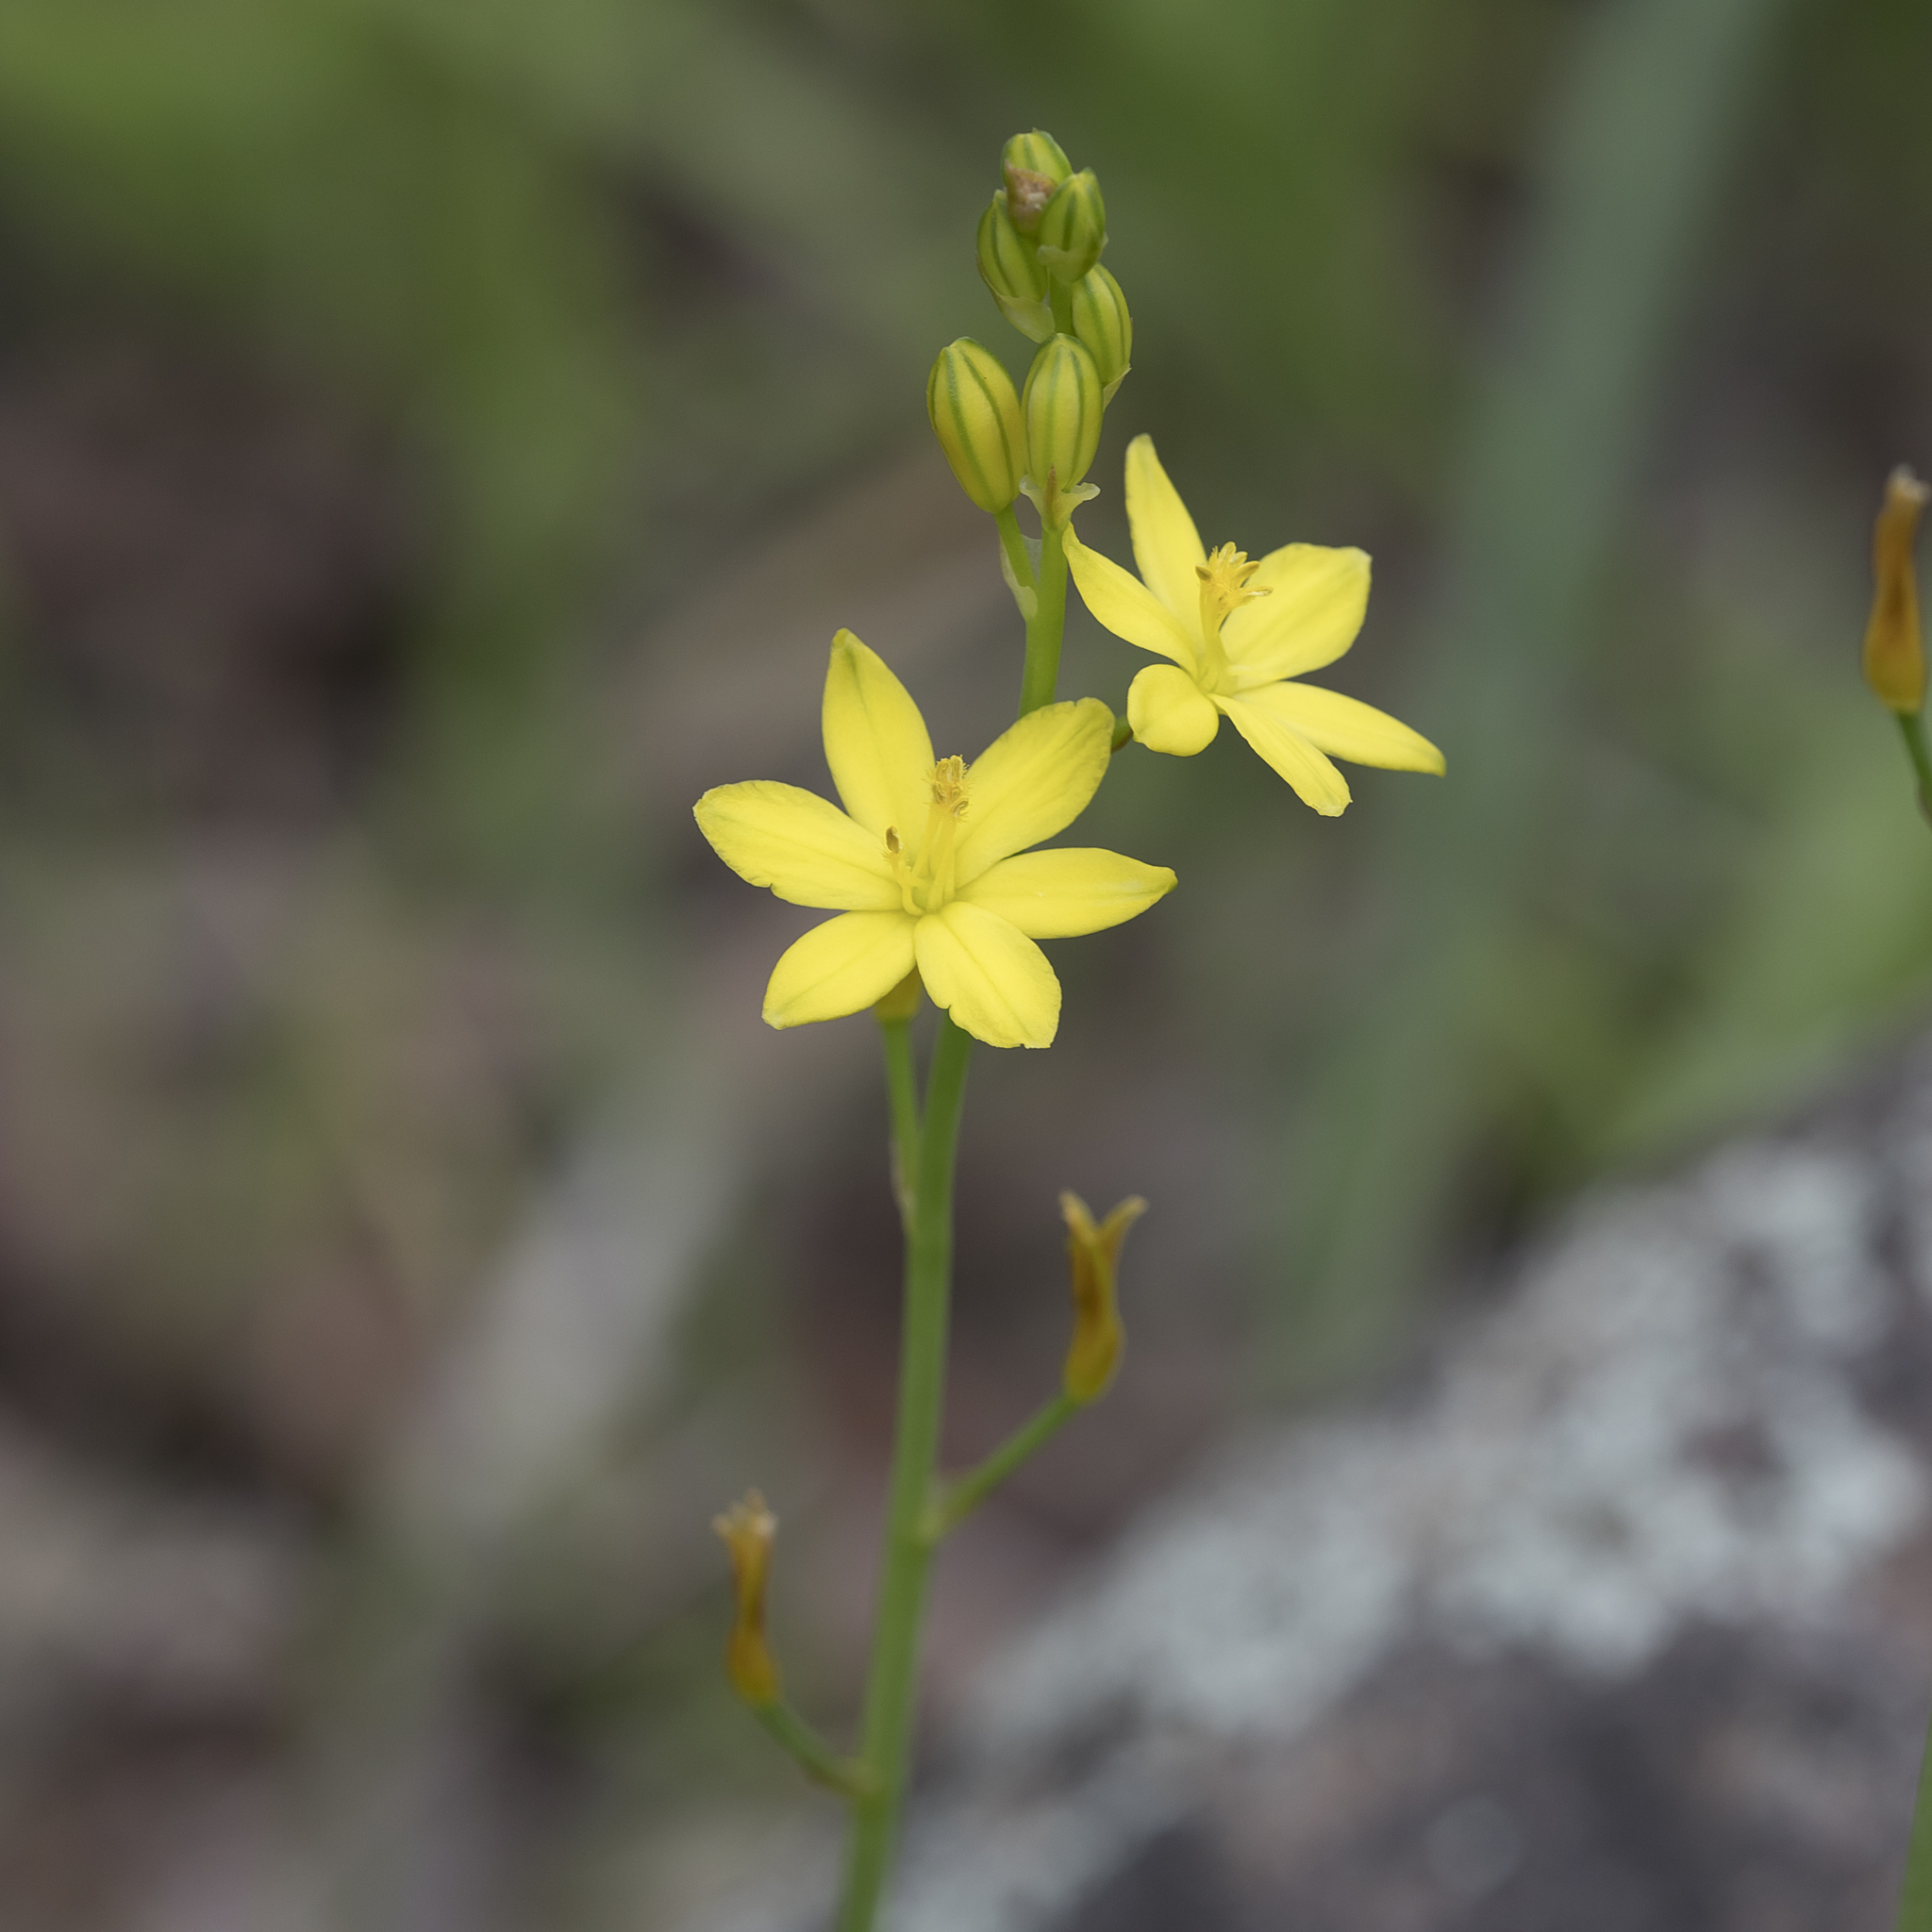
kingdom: Plantae
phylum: Tracheophyta
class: Liliopsida
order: Asparagales
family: Asphodelaceae
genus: Bulbine
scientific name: Bulbine bulbosa
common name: Golden-lily
